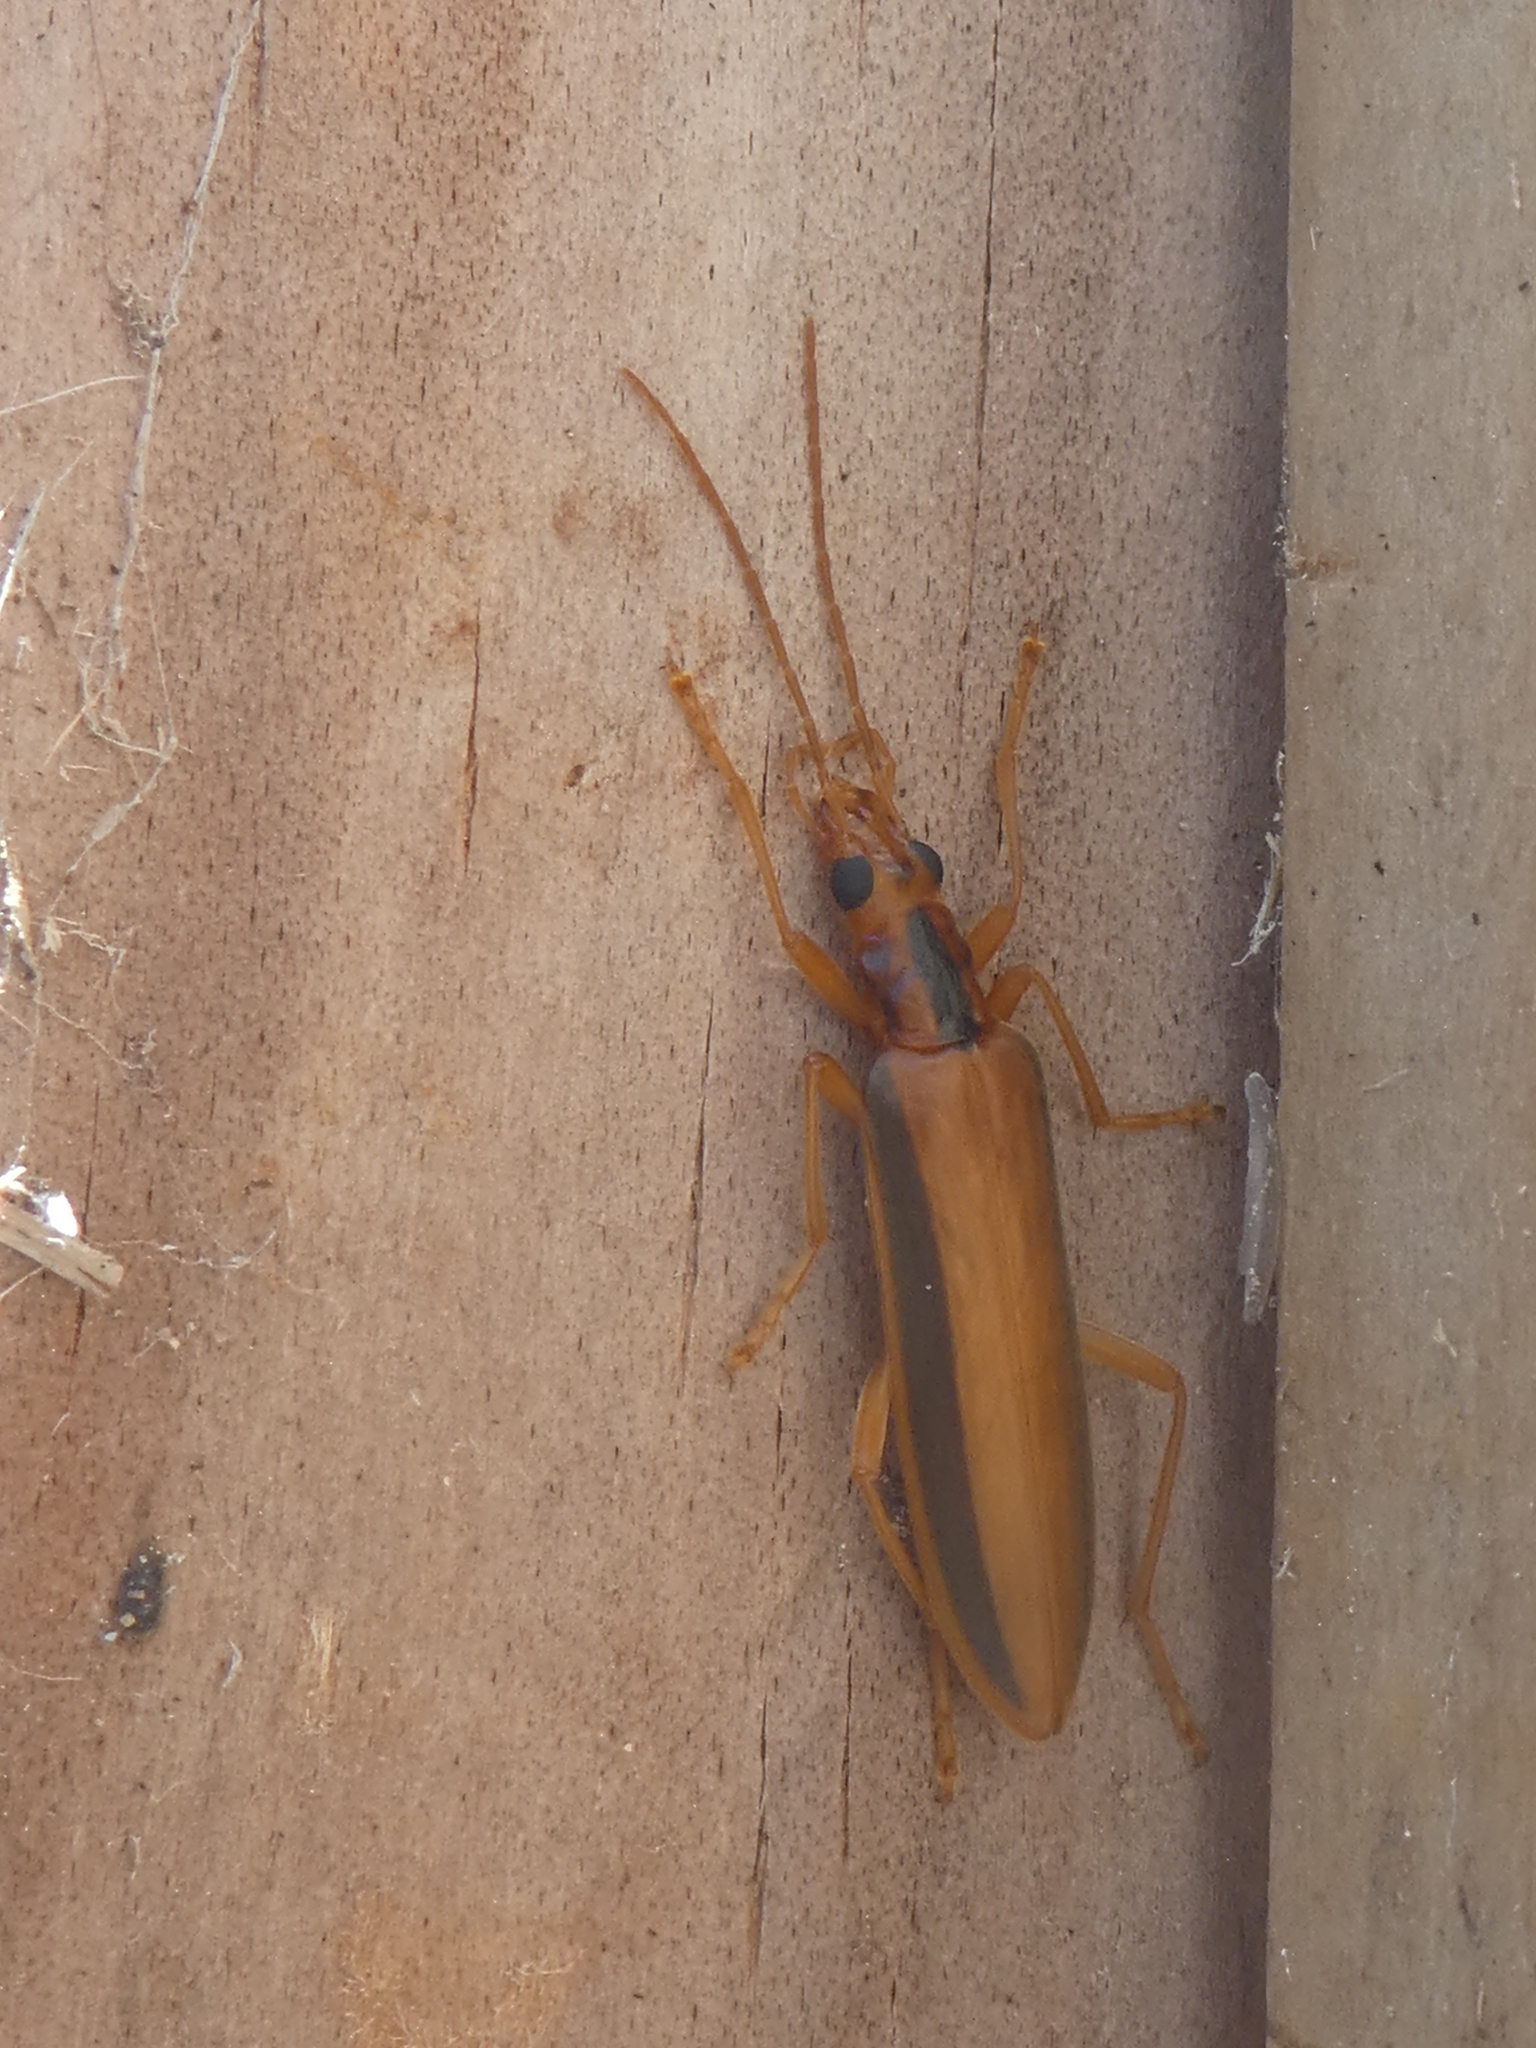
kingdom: Animalia
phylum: Arthropoda
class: Insecta
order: Coleoptera
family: Oedemeridae
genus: Thelyphassa
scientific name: Thelyphassa
